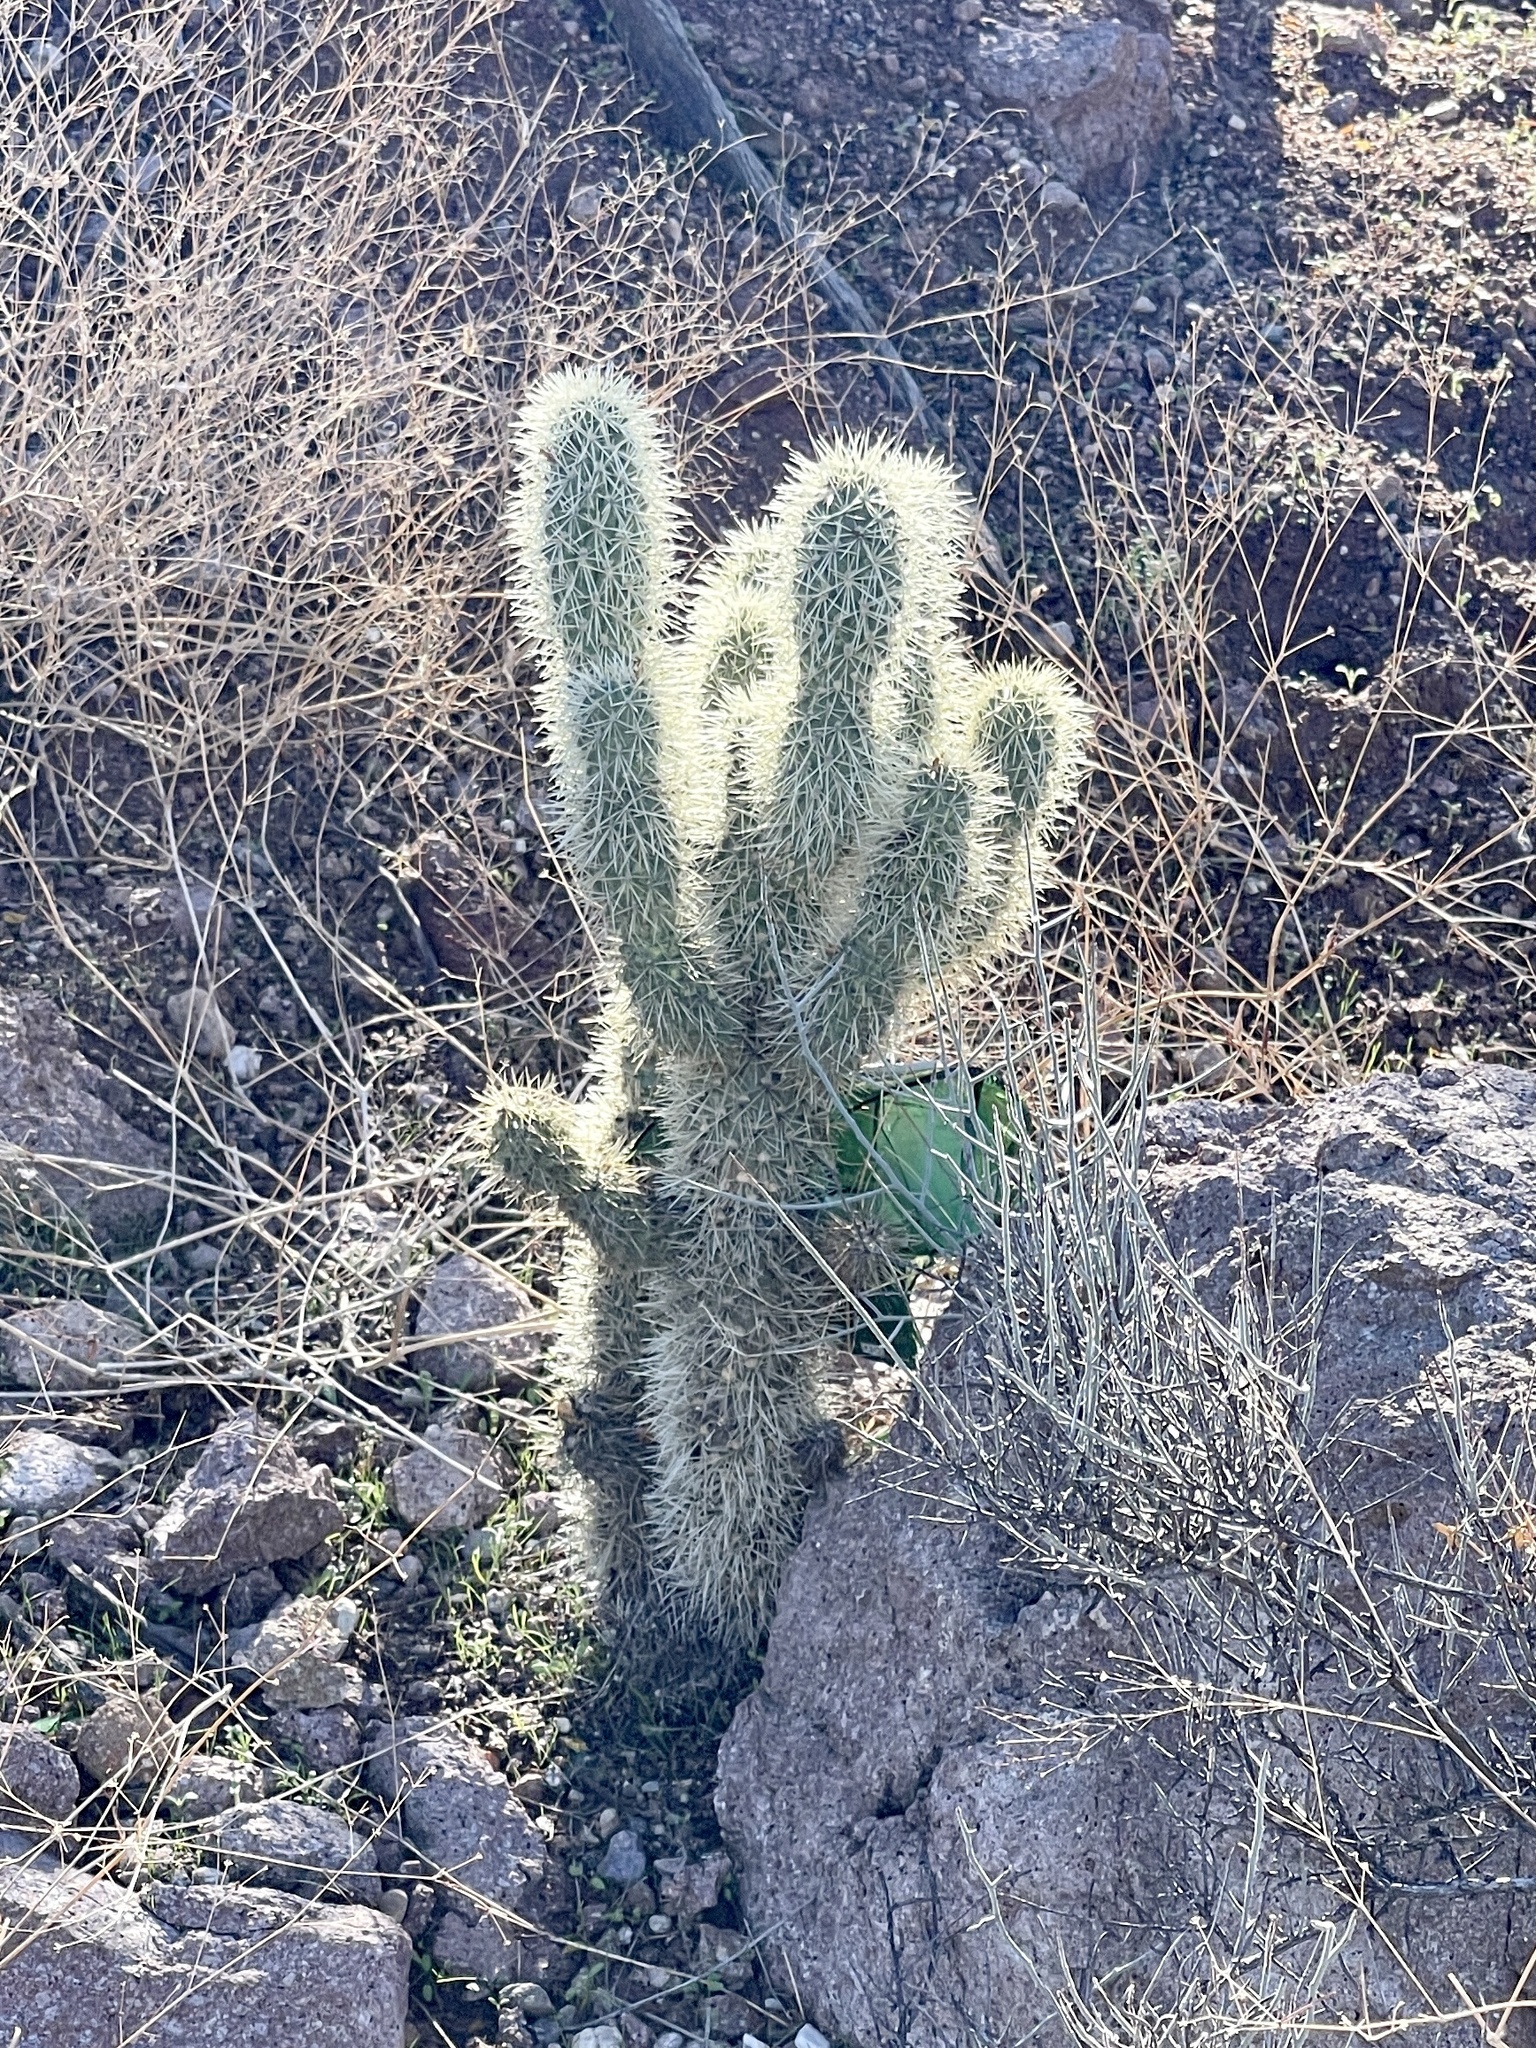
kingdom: Plantae
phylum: Tracheophyta
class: Magnoliopsida
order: Caryophyllales
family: Cactaceae
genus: Cylindropuntia
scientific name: Cylindropuntia fosbergii
